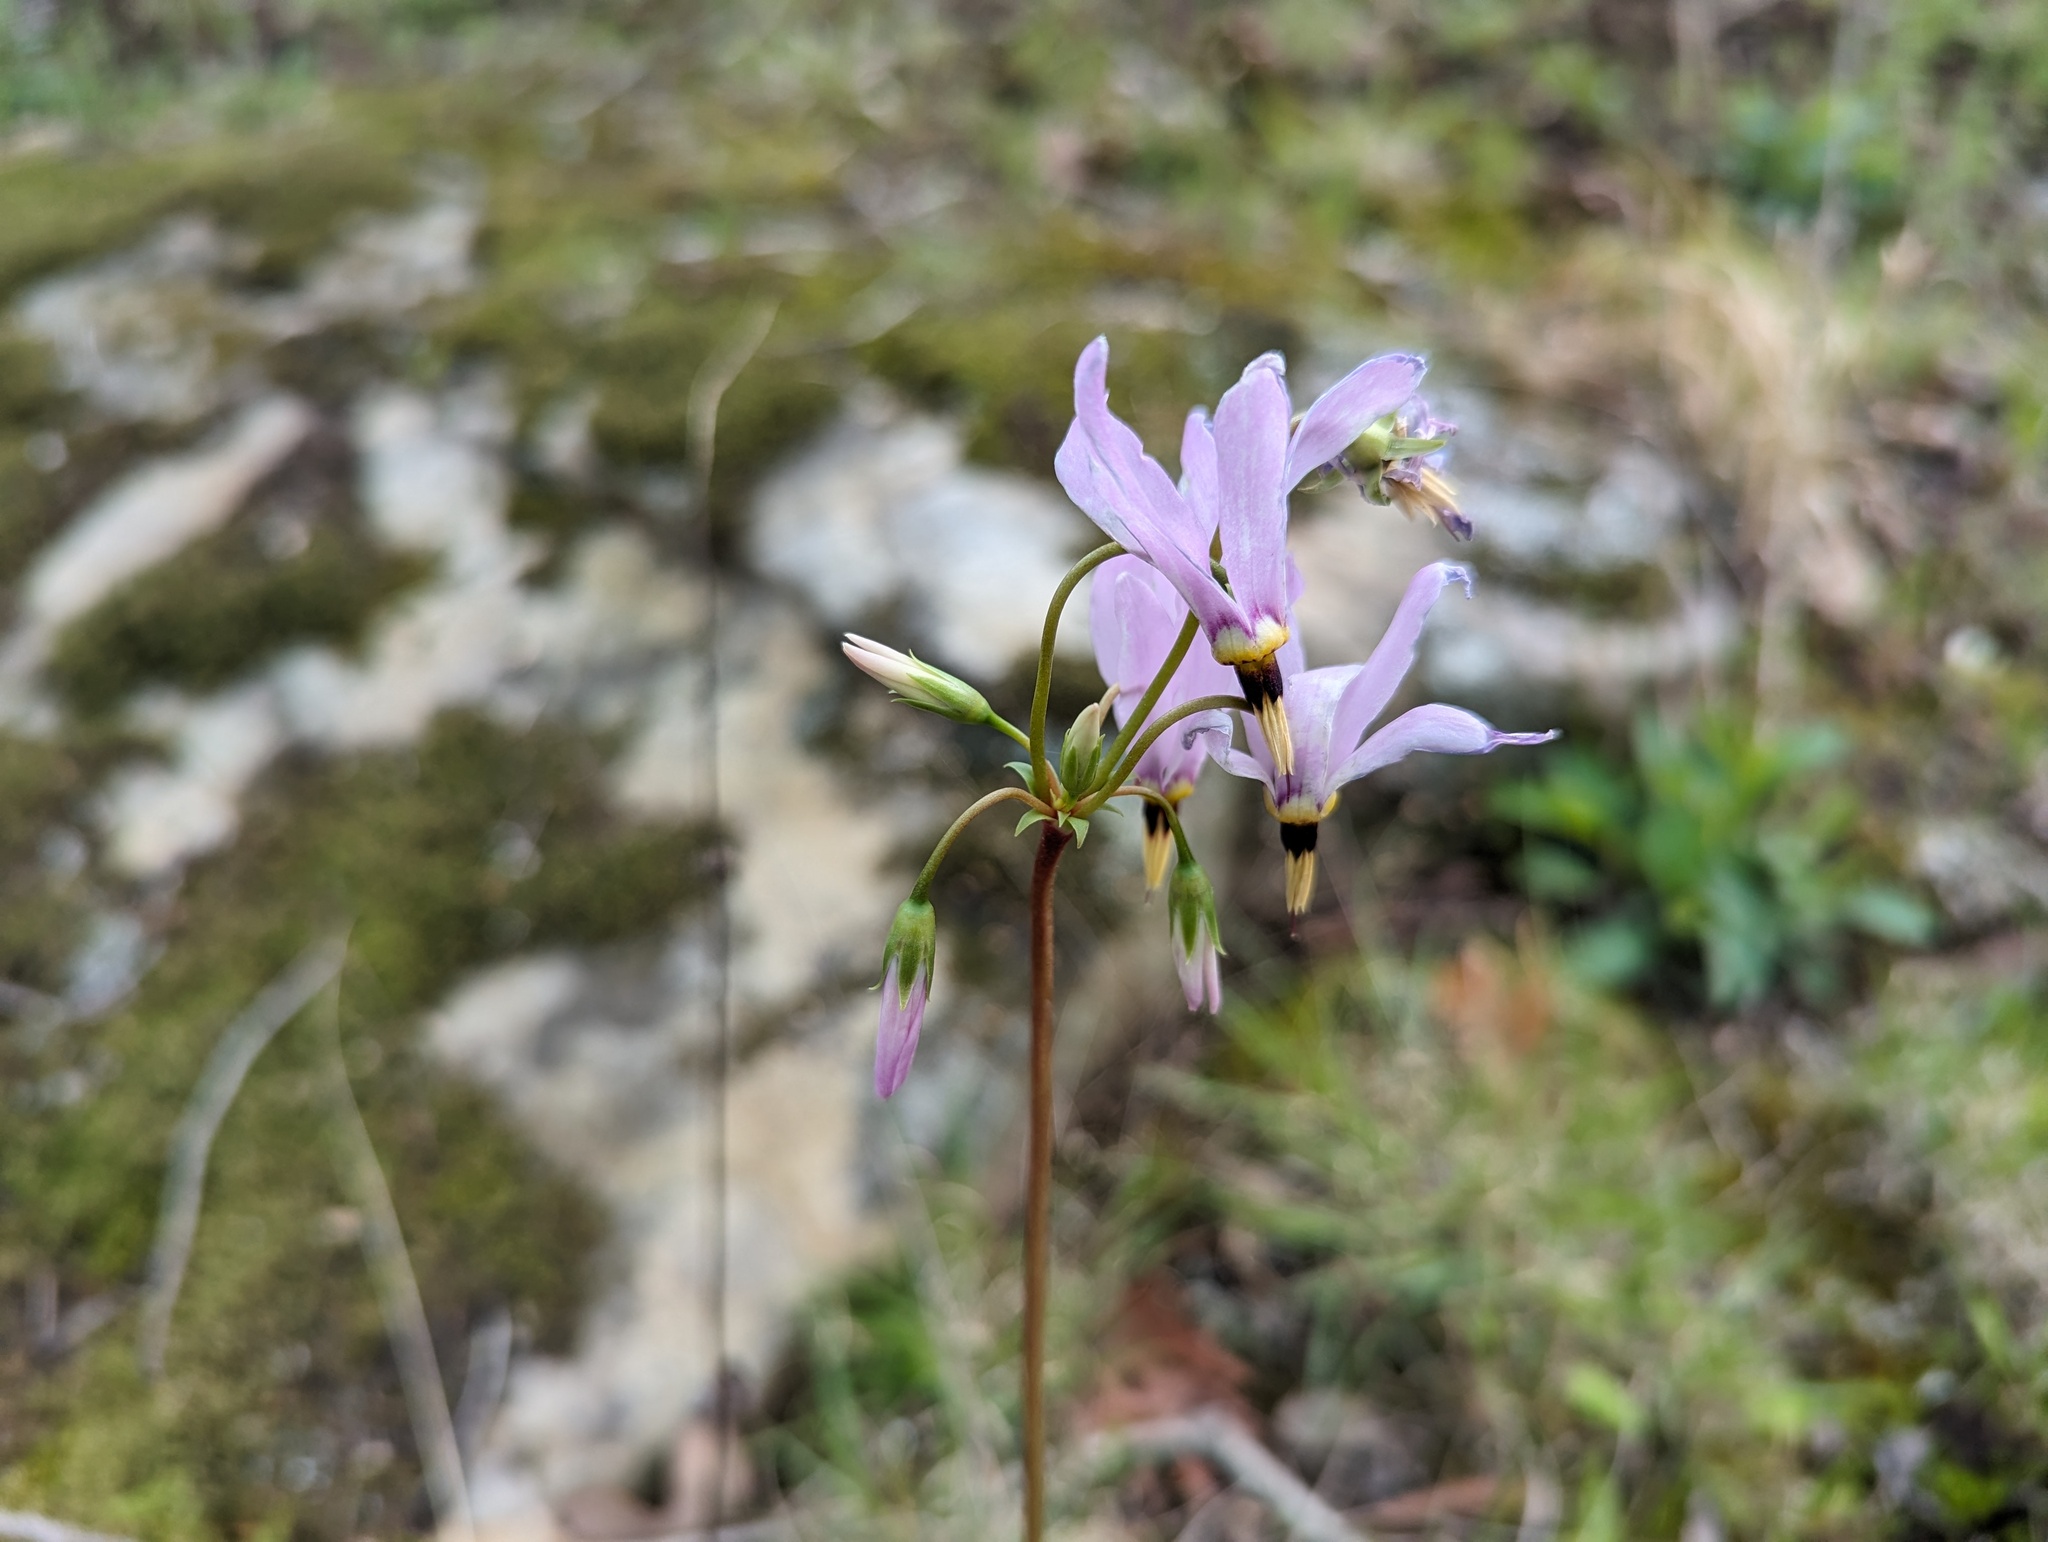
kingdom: Plantae
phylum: Tracheophyta
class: Magnoliopsida
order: Ericales
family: Primulaceae
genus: Dodecatheon
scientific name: Dodecatheon meadia
